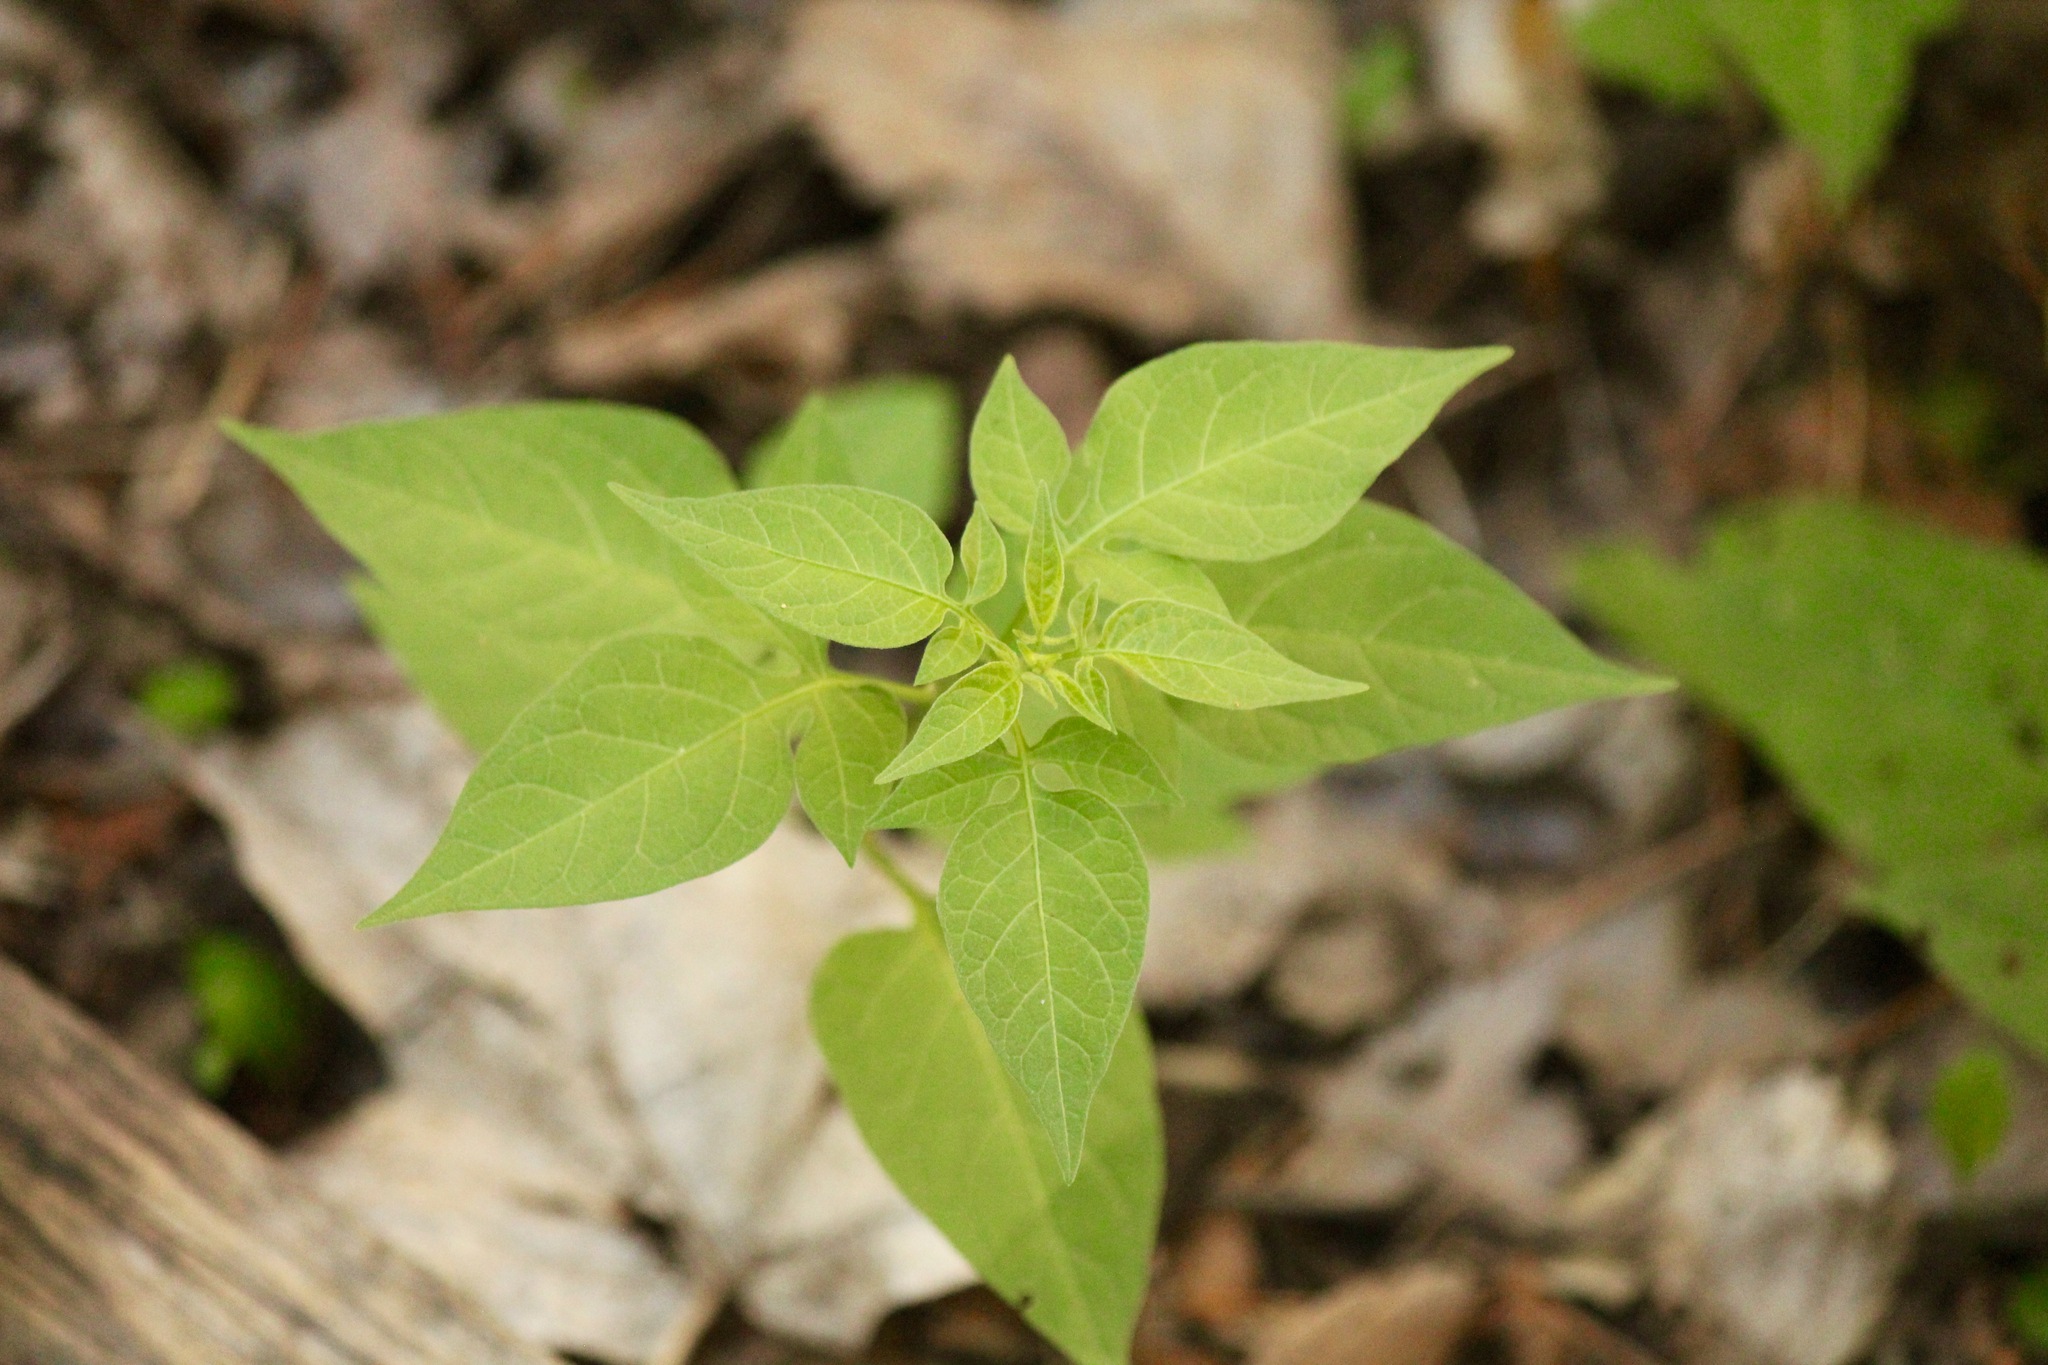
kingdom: Plantae
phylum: Tracheophyta
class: Magnoliopsida
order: Solanales
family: Solanaceae
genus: Solanum
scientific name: Solanum dulcamara
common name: Climbing nightshade
